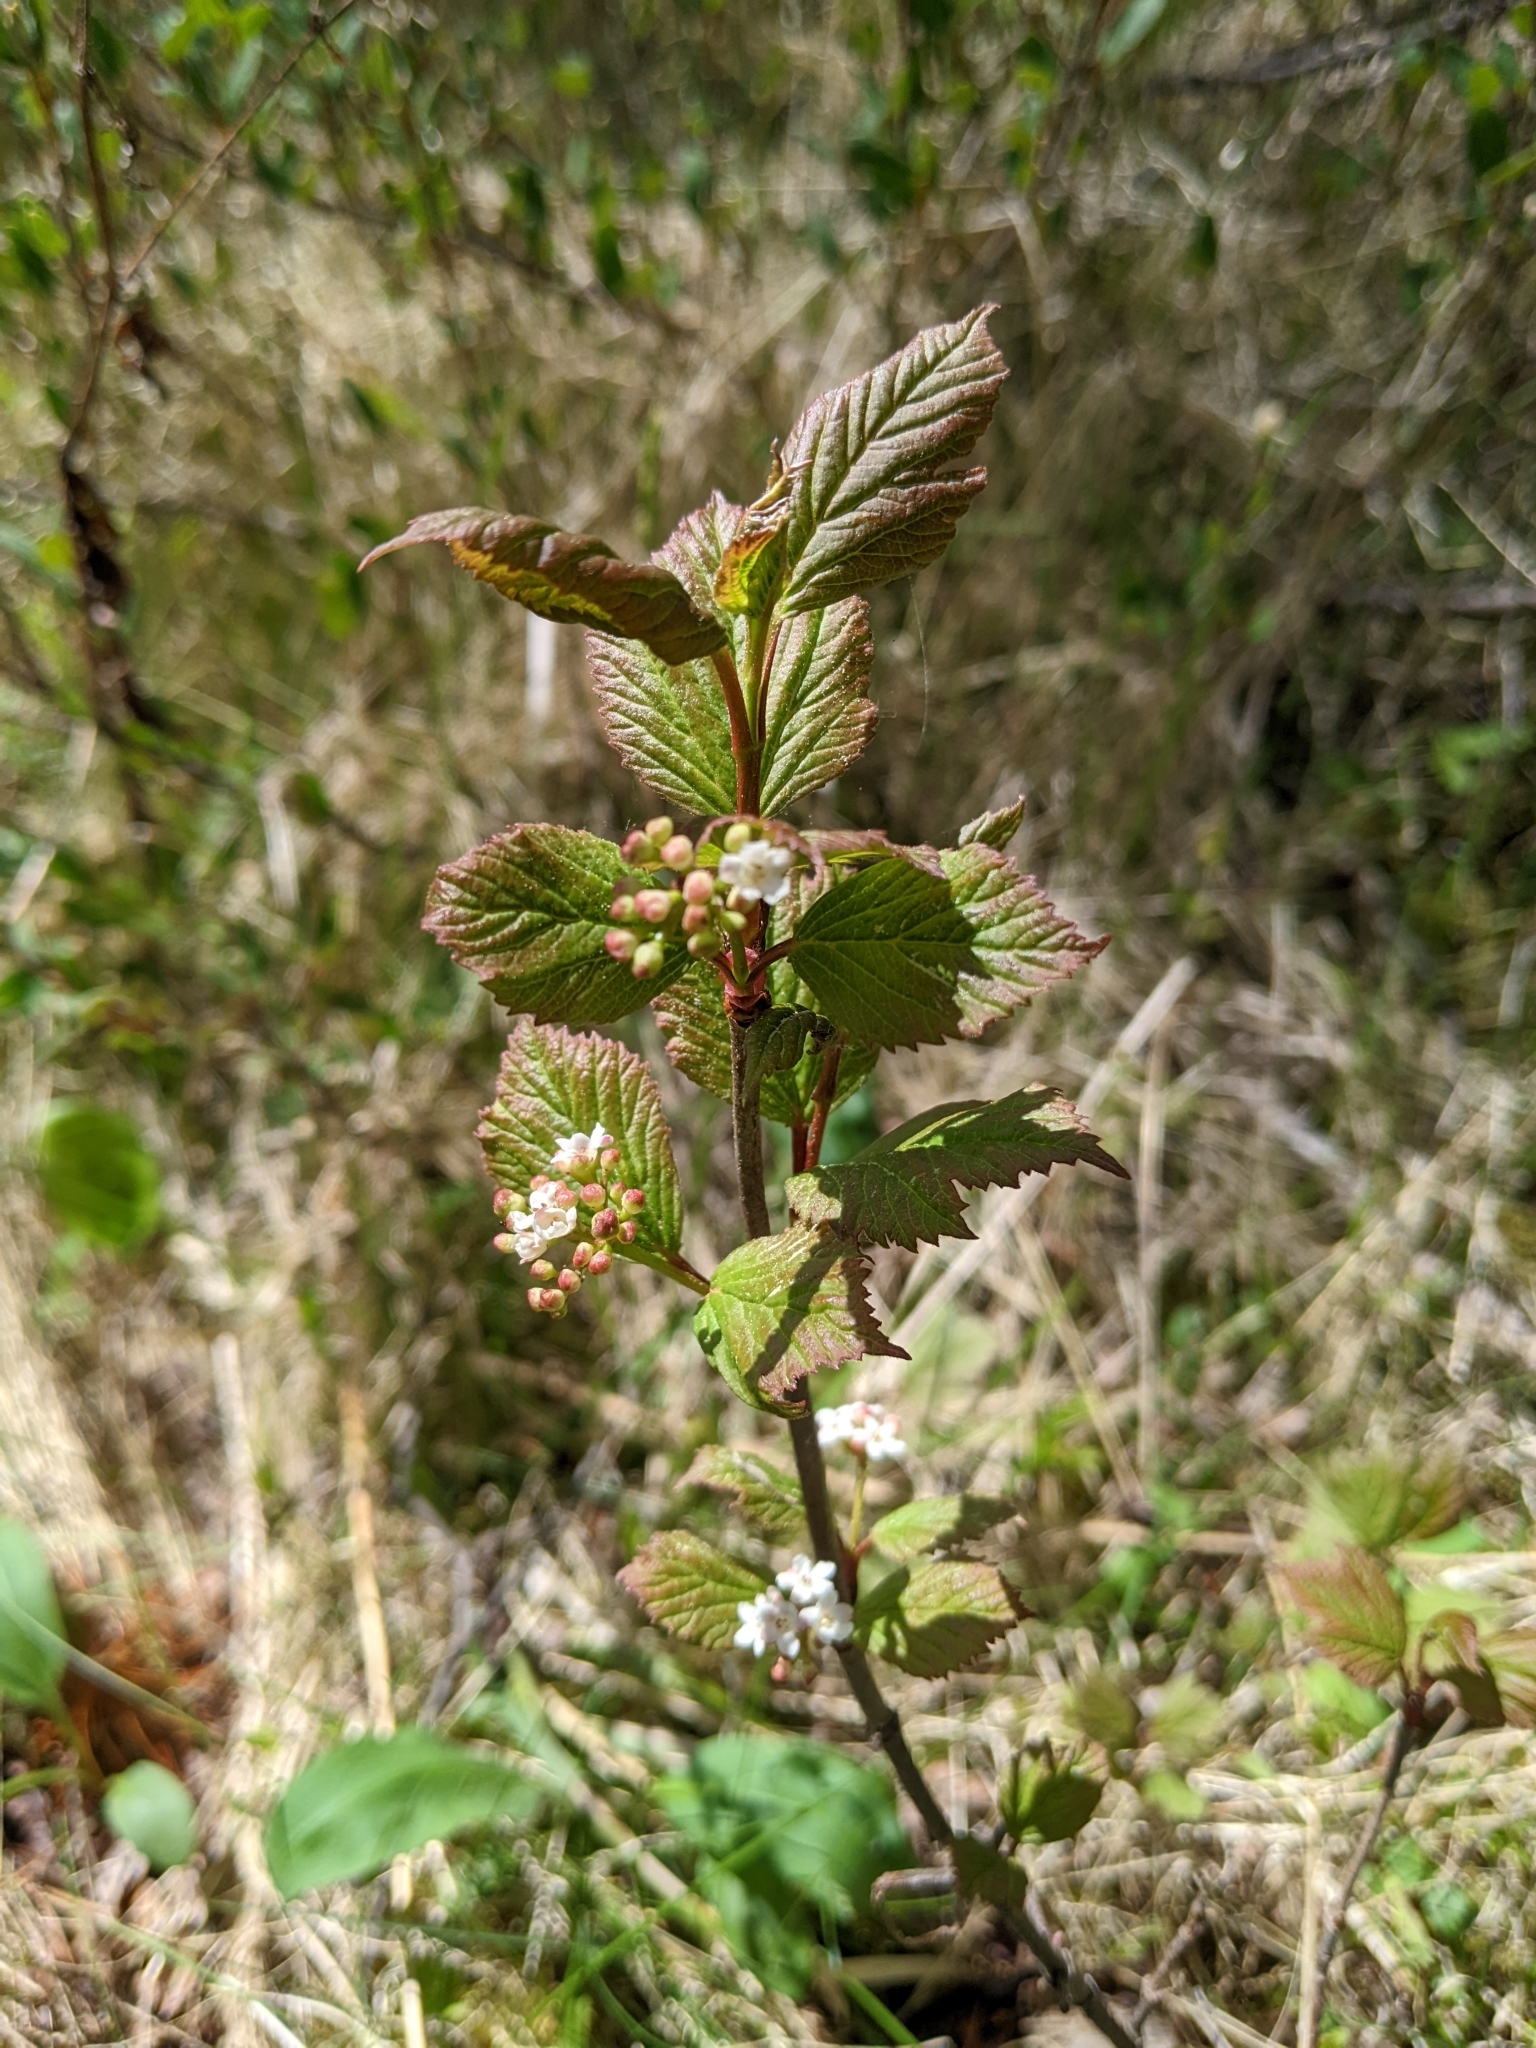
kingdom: Plantae
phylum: Tracheophyta
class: Magnoliopsida
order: Dipsacales
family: Viburnaceae
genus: Viburnum
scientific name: Viburnum edule
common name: Mooseberry
